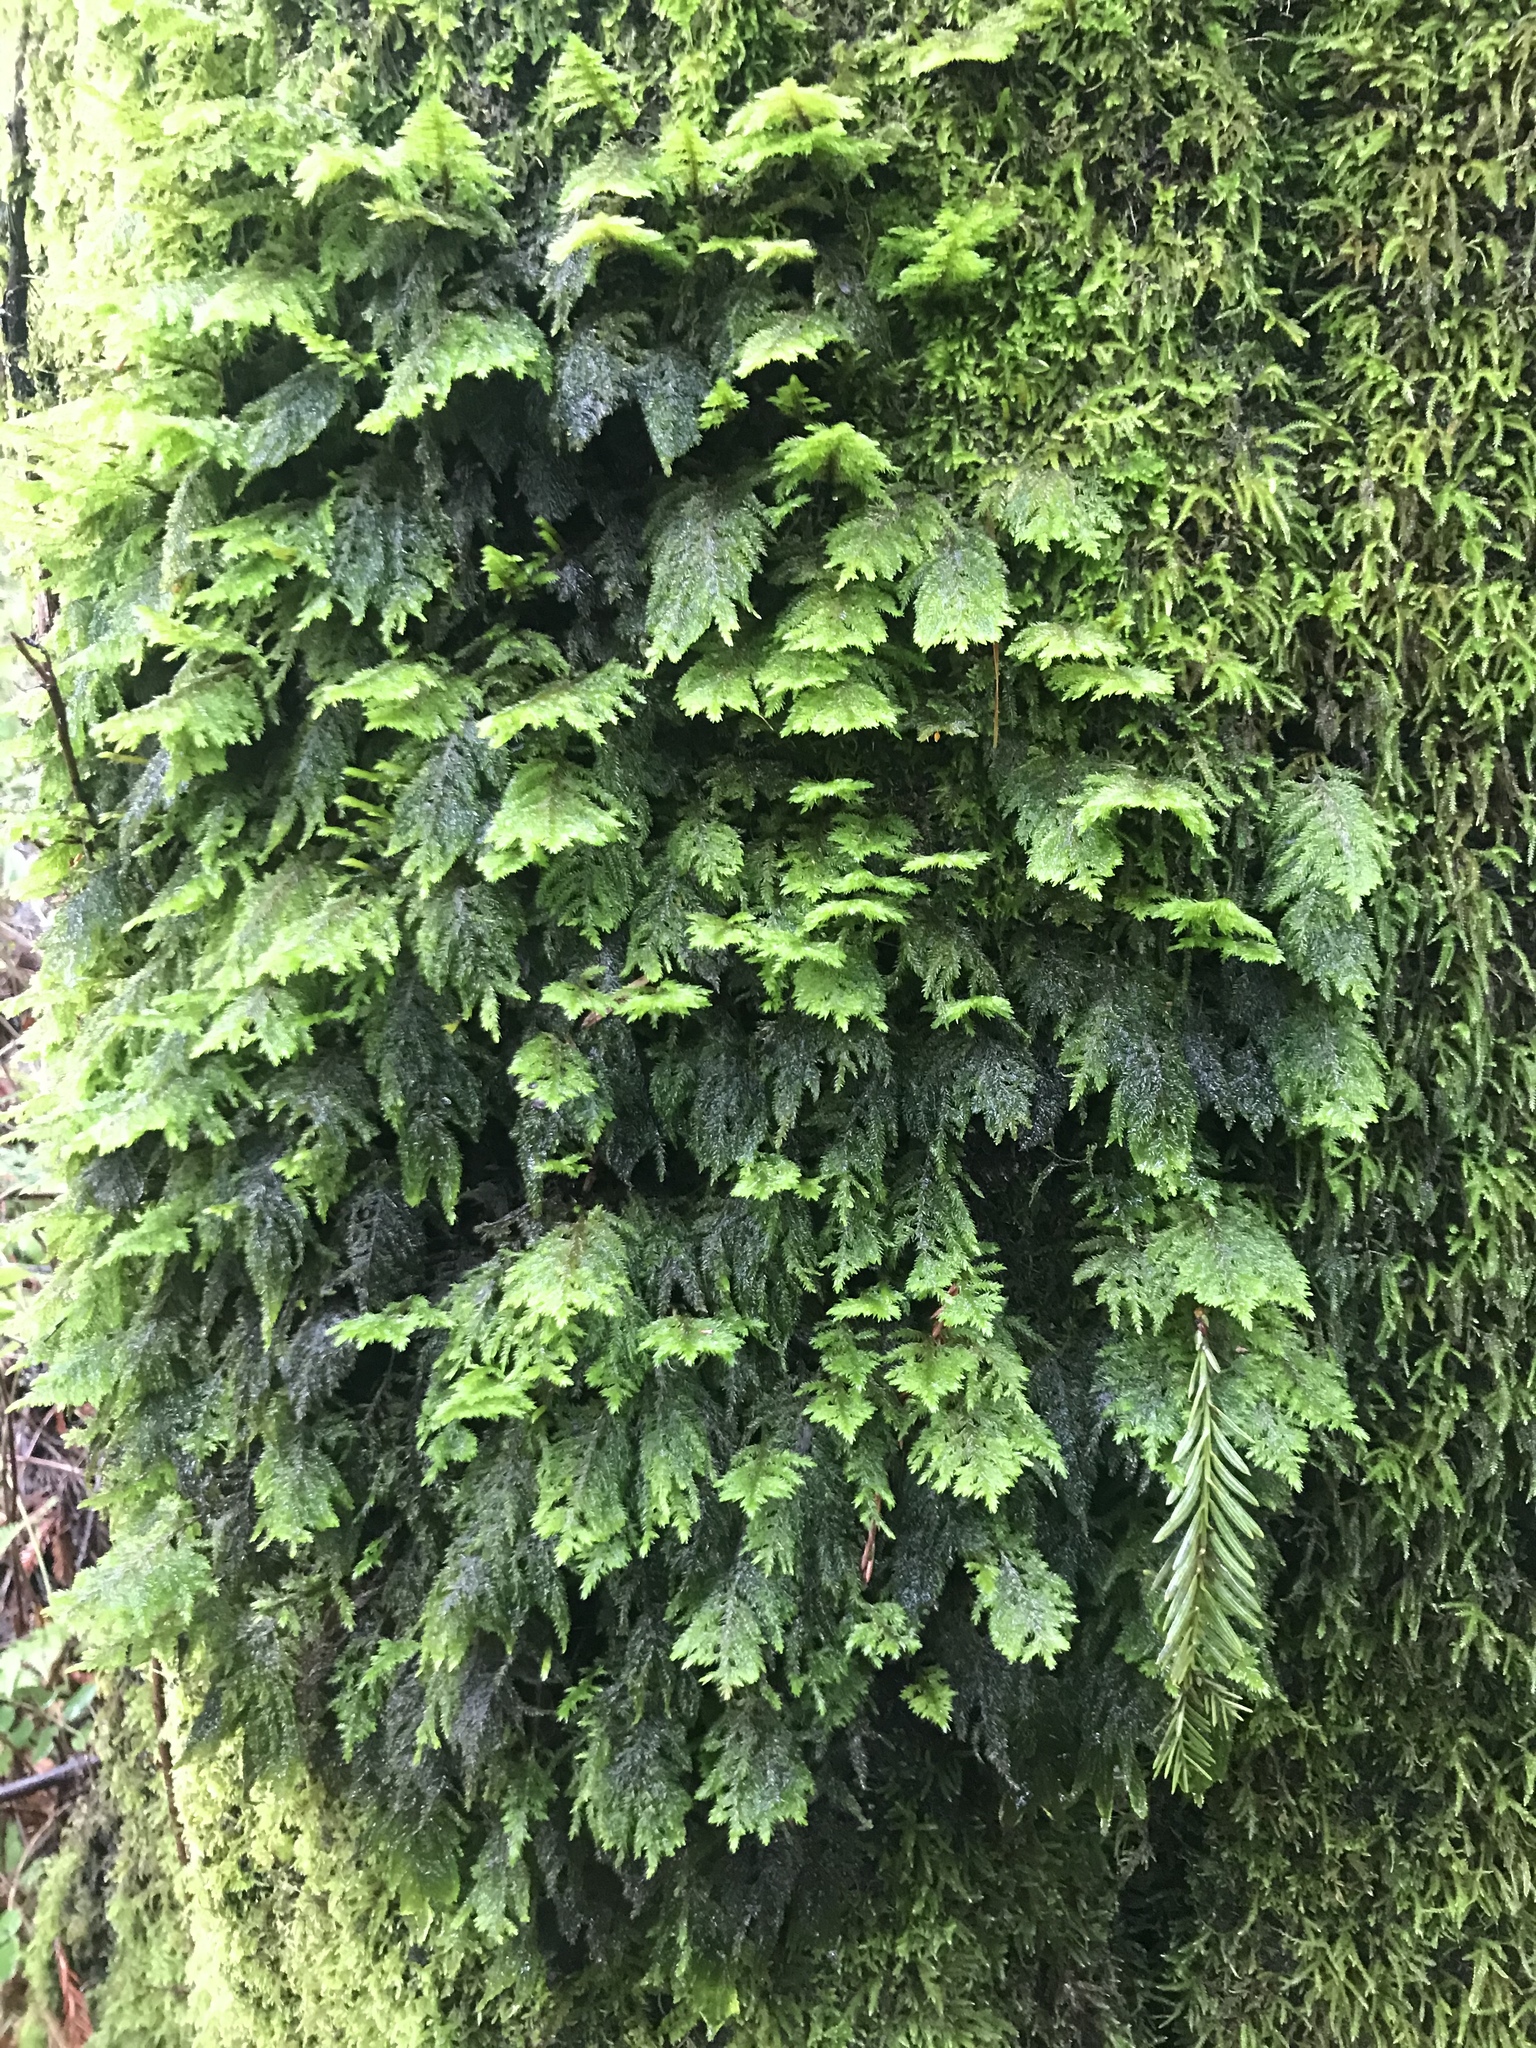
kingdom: Plantae
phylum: Bryophyta
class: Bryopsida
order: Hypnales
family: Cryphaeaceae
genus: Dendroalsia
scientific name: Dendroalsia abietina
